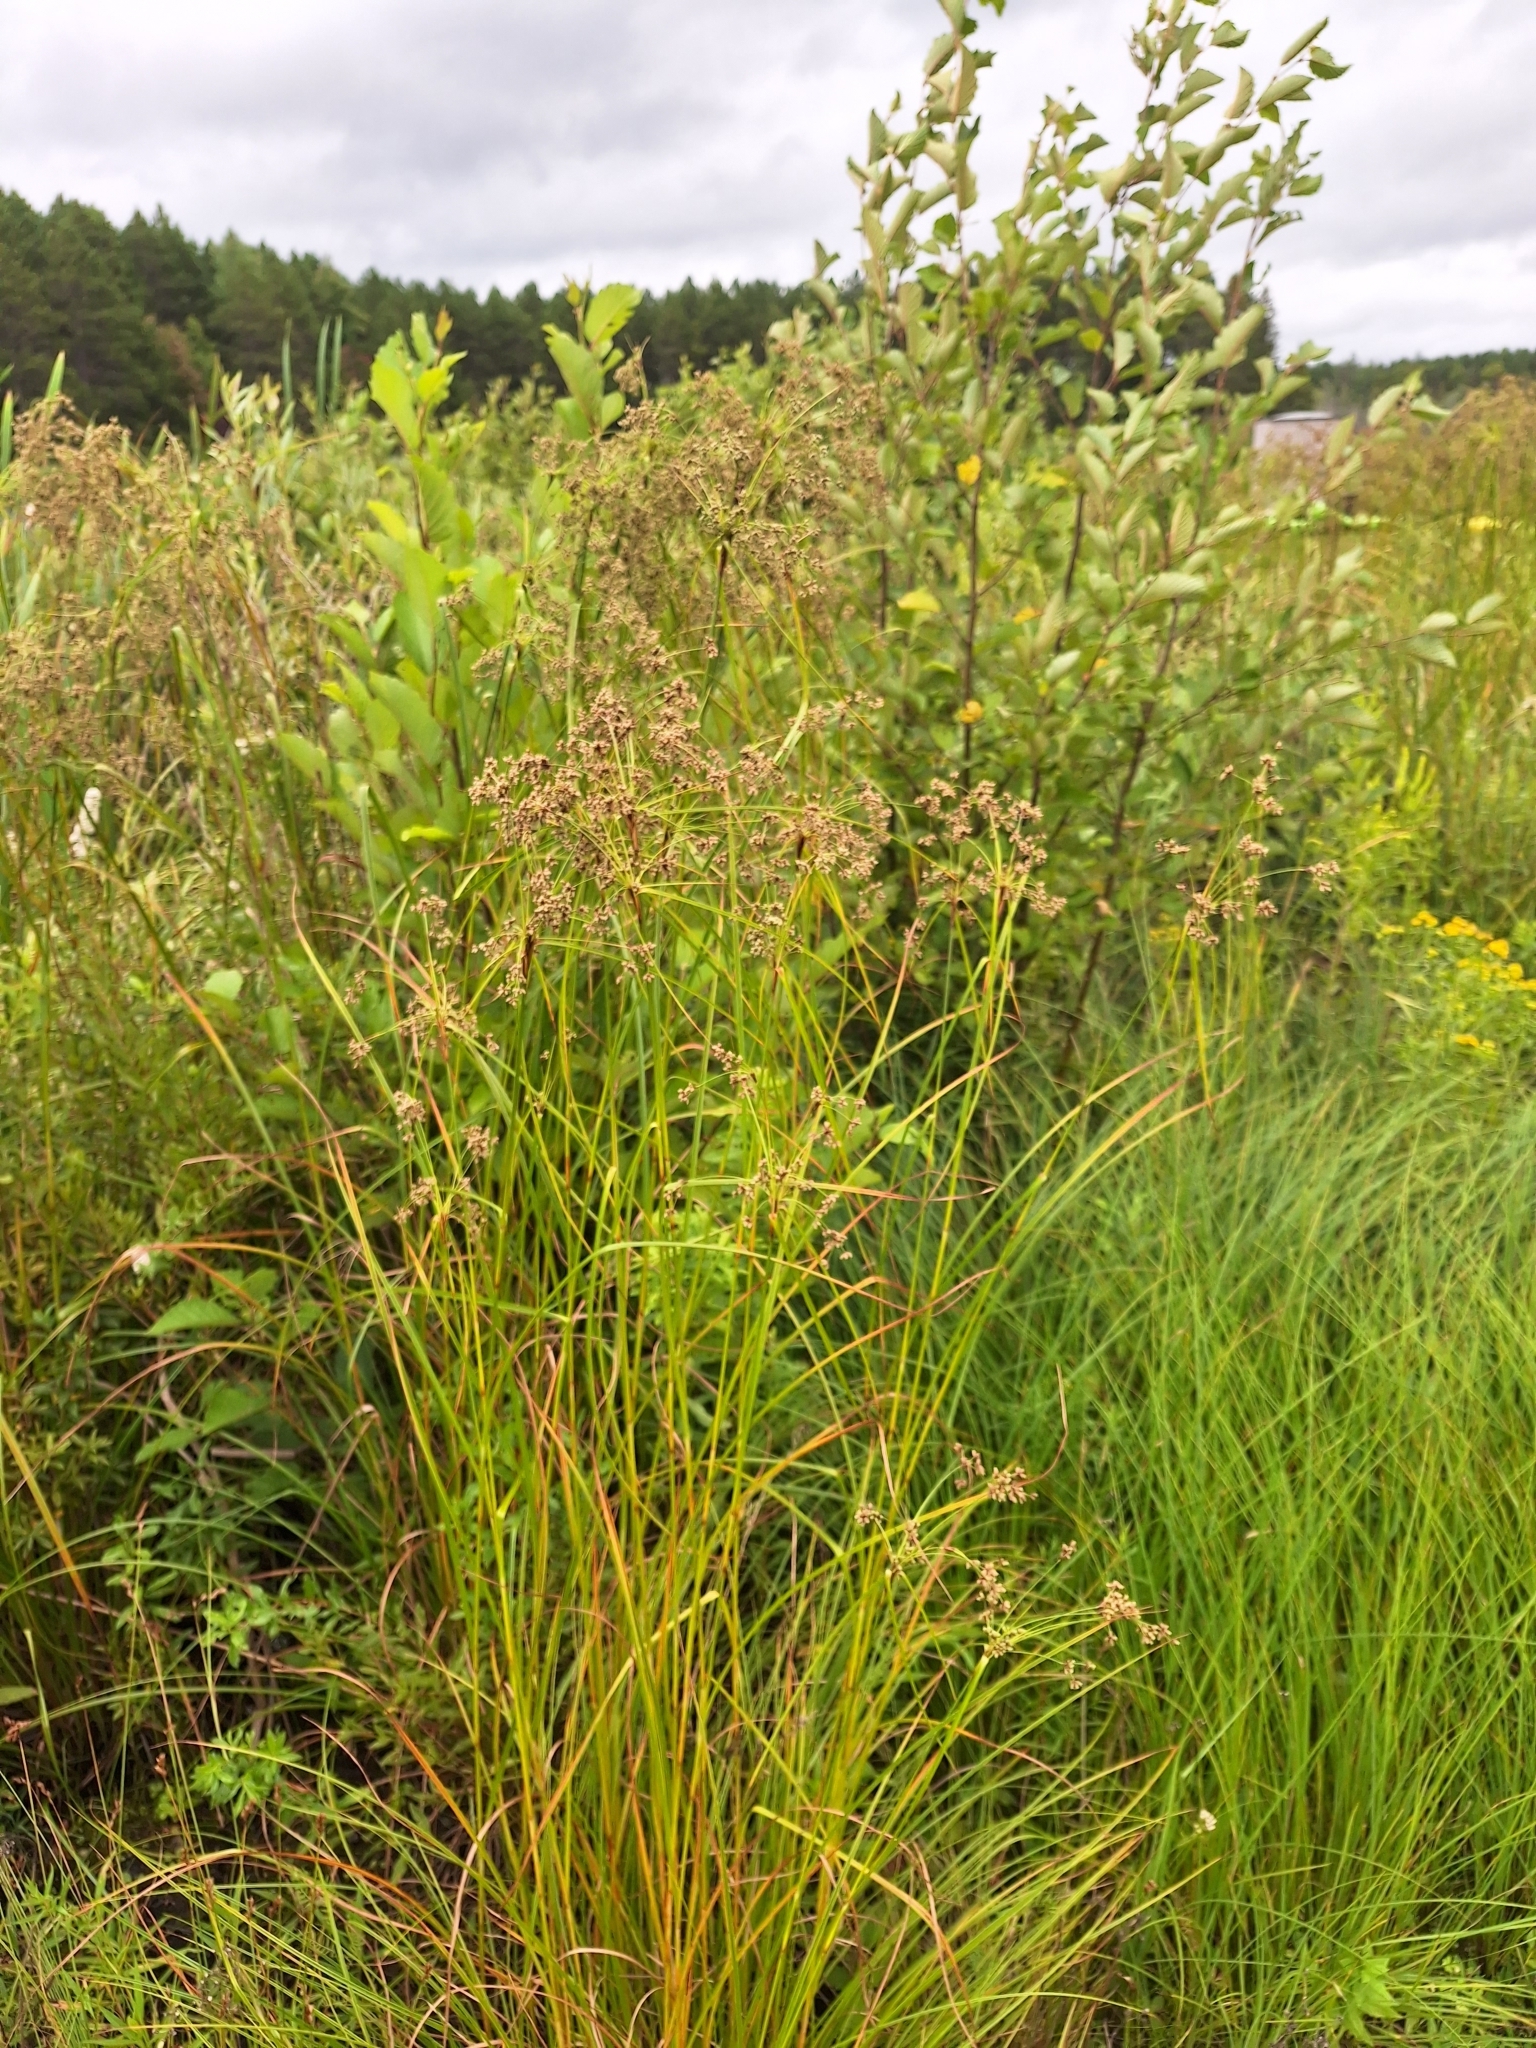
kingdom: Plantae
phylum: Tracheophyta
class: Liliopsida
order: Poales
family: Cyperaceae
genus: Scirpus
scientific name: Scirpus cyperinus
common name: Black-sheathed bulrush
